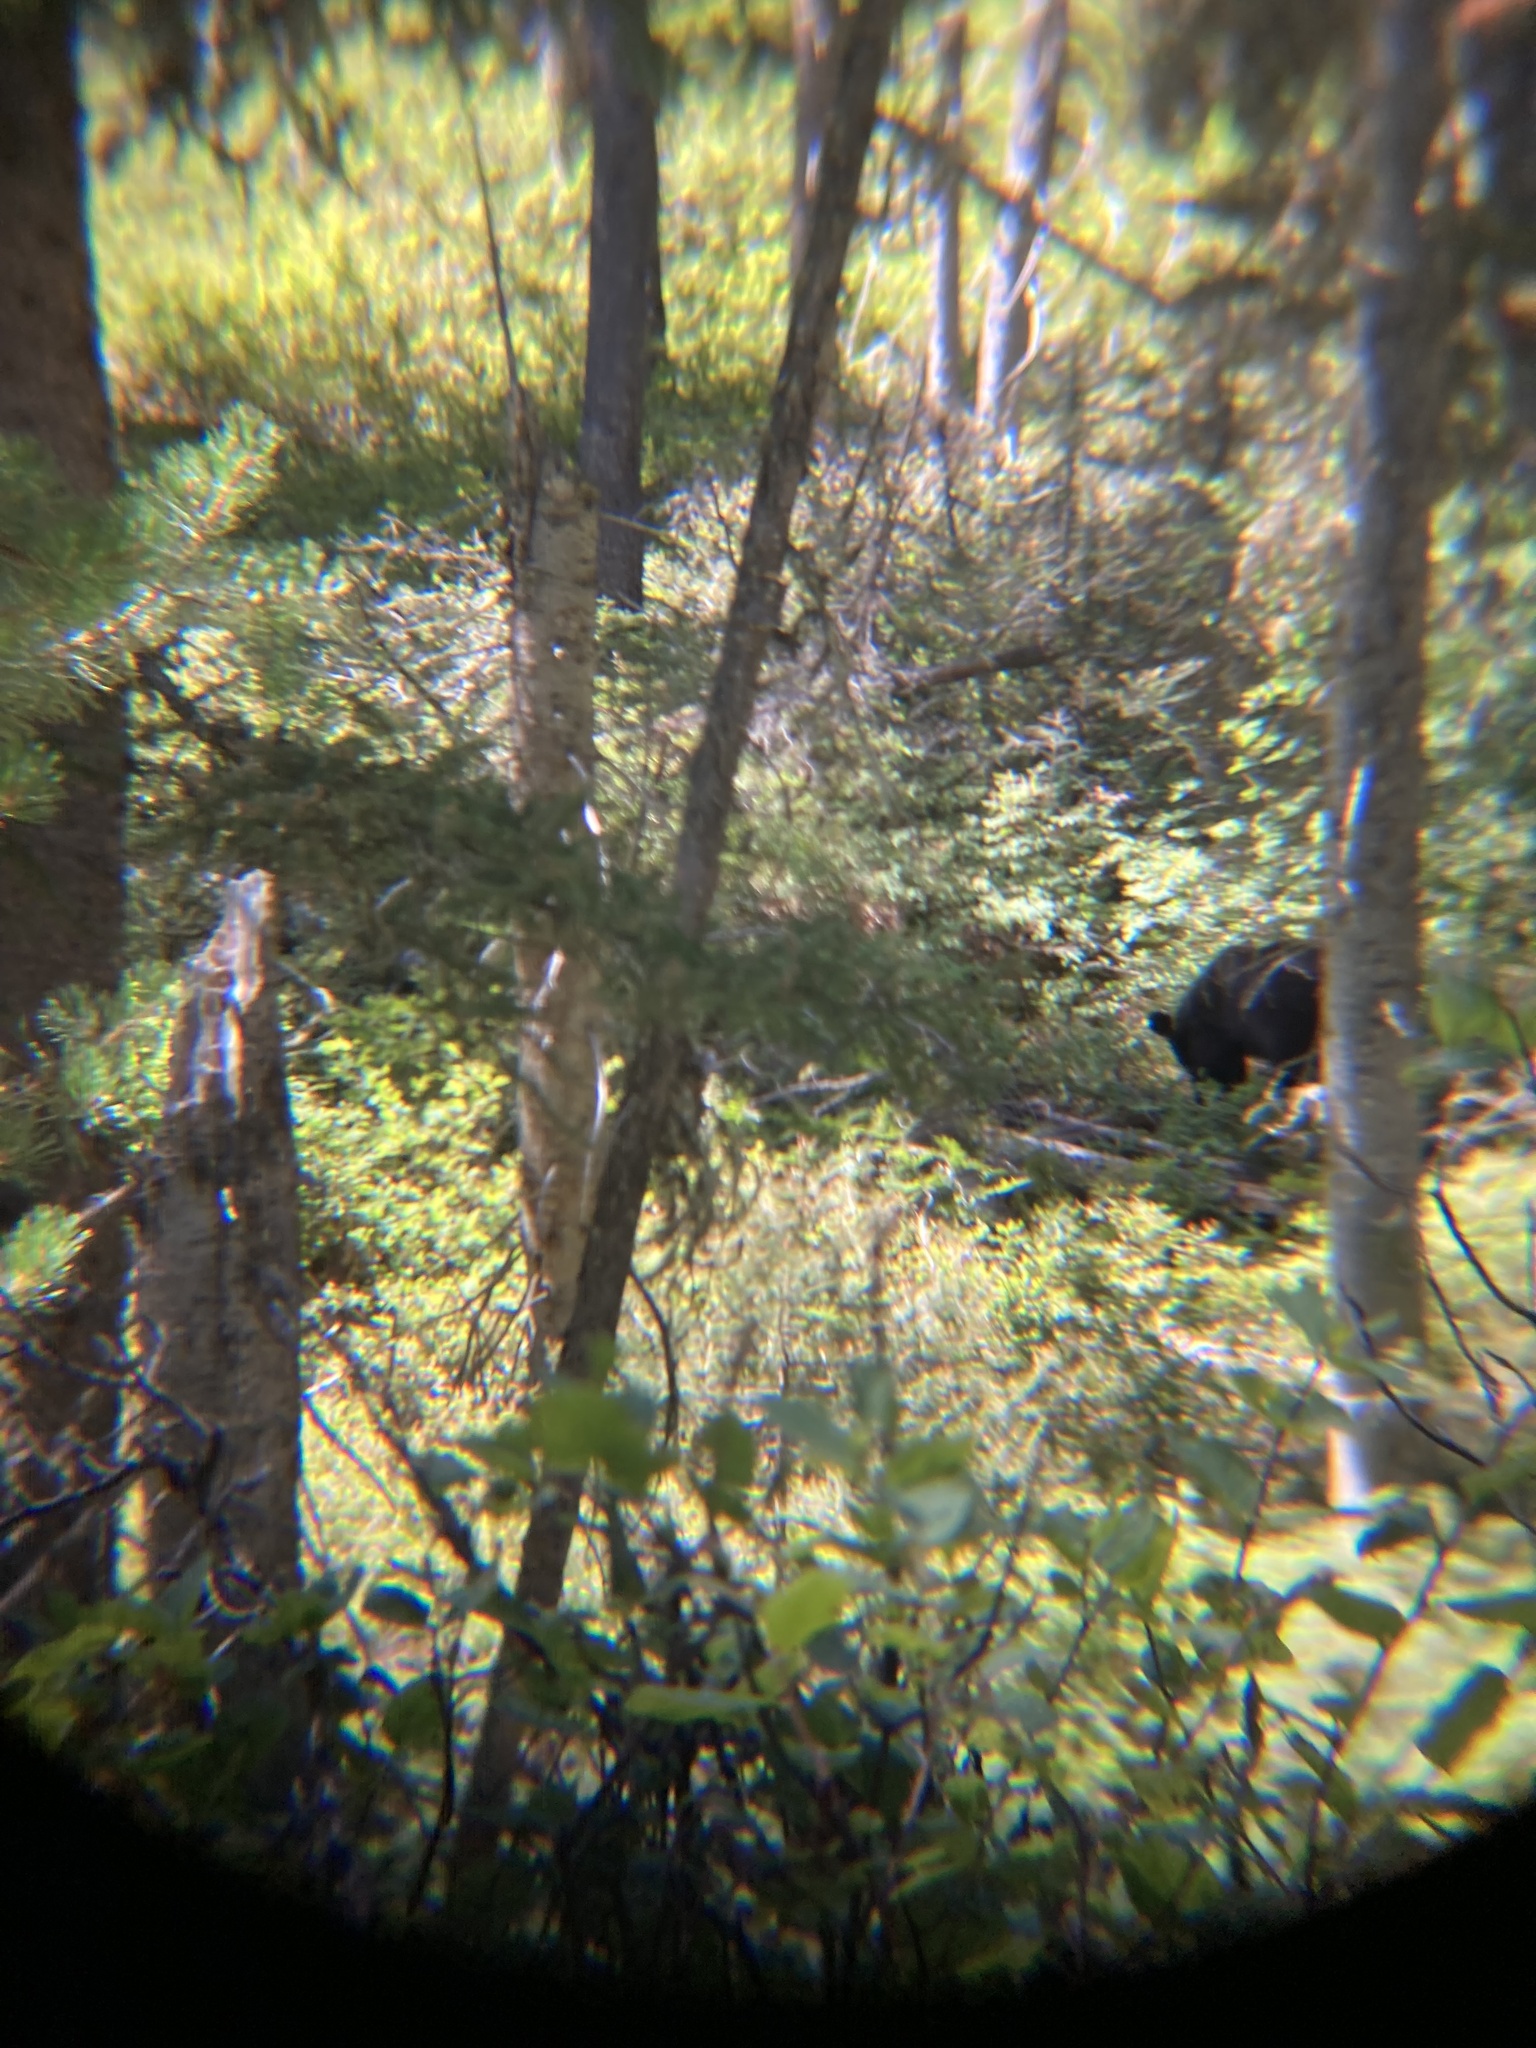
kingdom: Animalia
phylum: Chordata
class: Mammalia
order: Carnivora
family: Ursidae
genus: Ursus
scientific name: Ursus americanus
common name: American black bear
